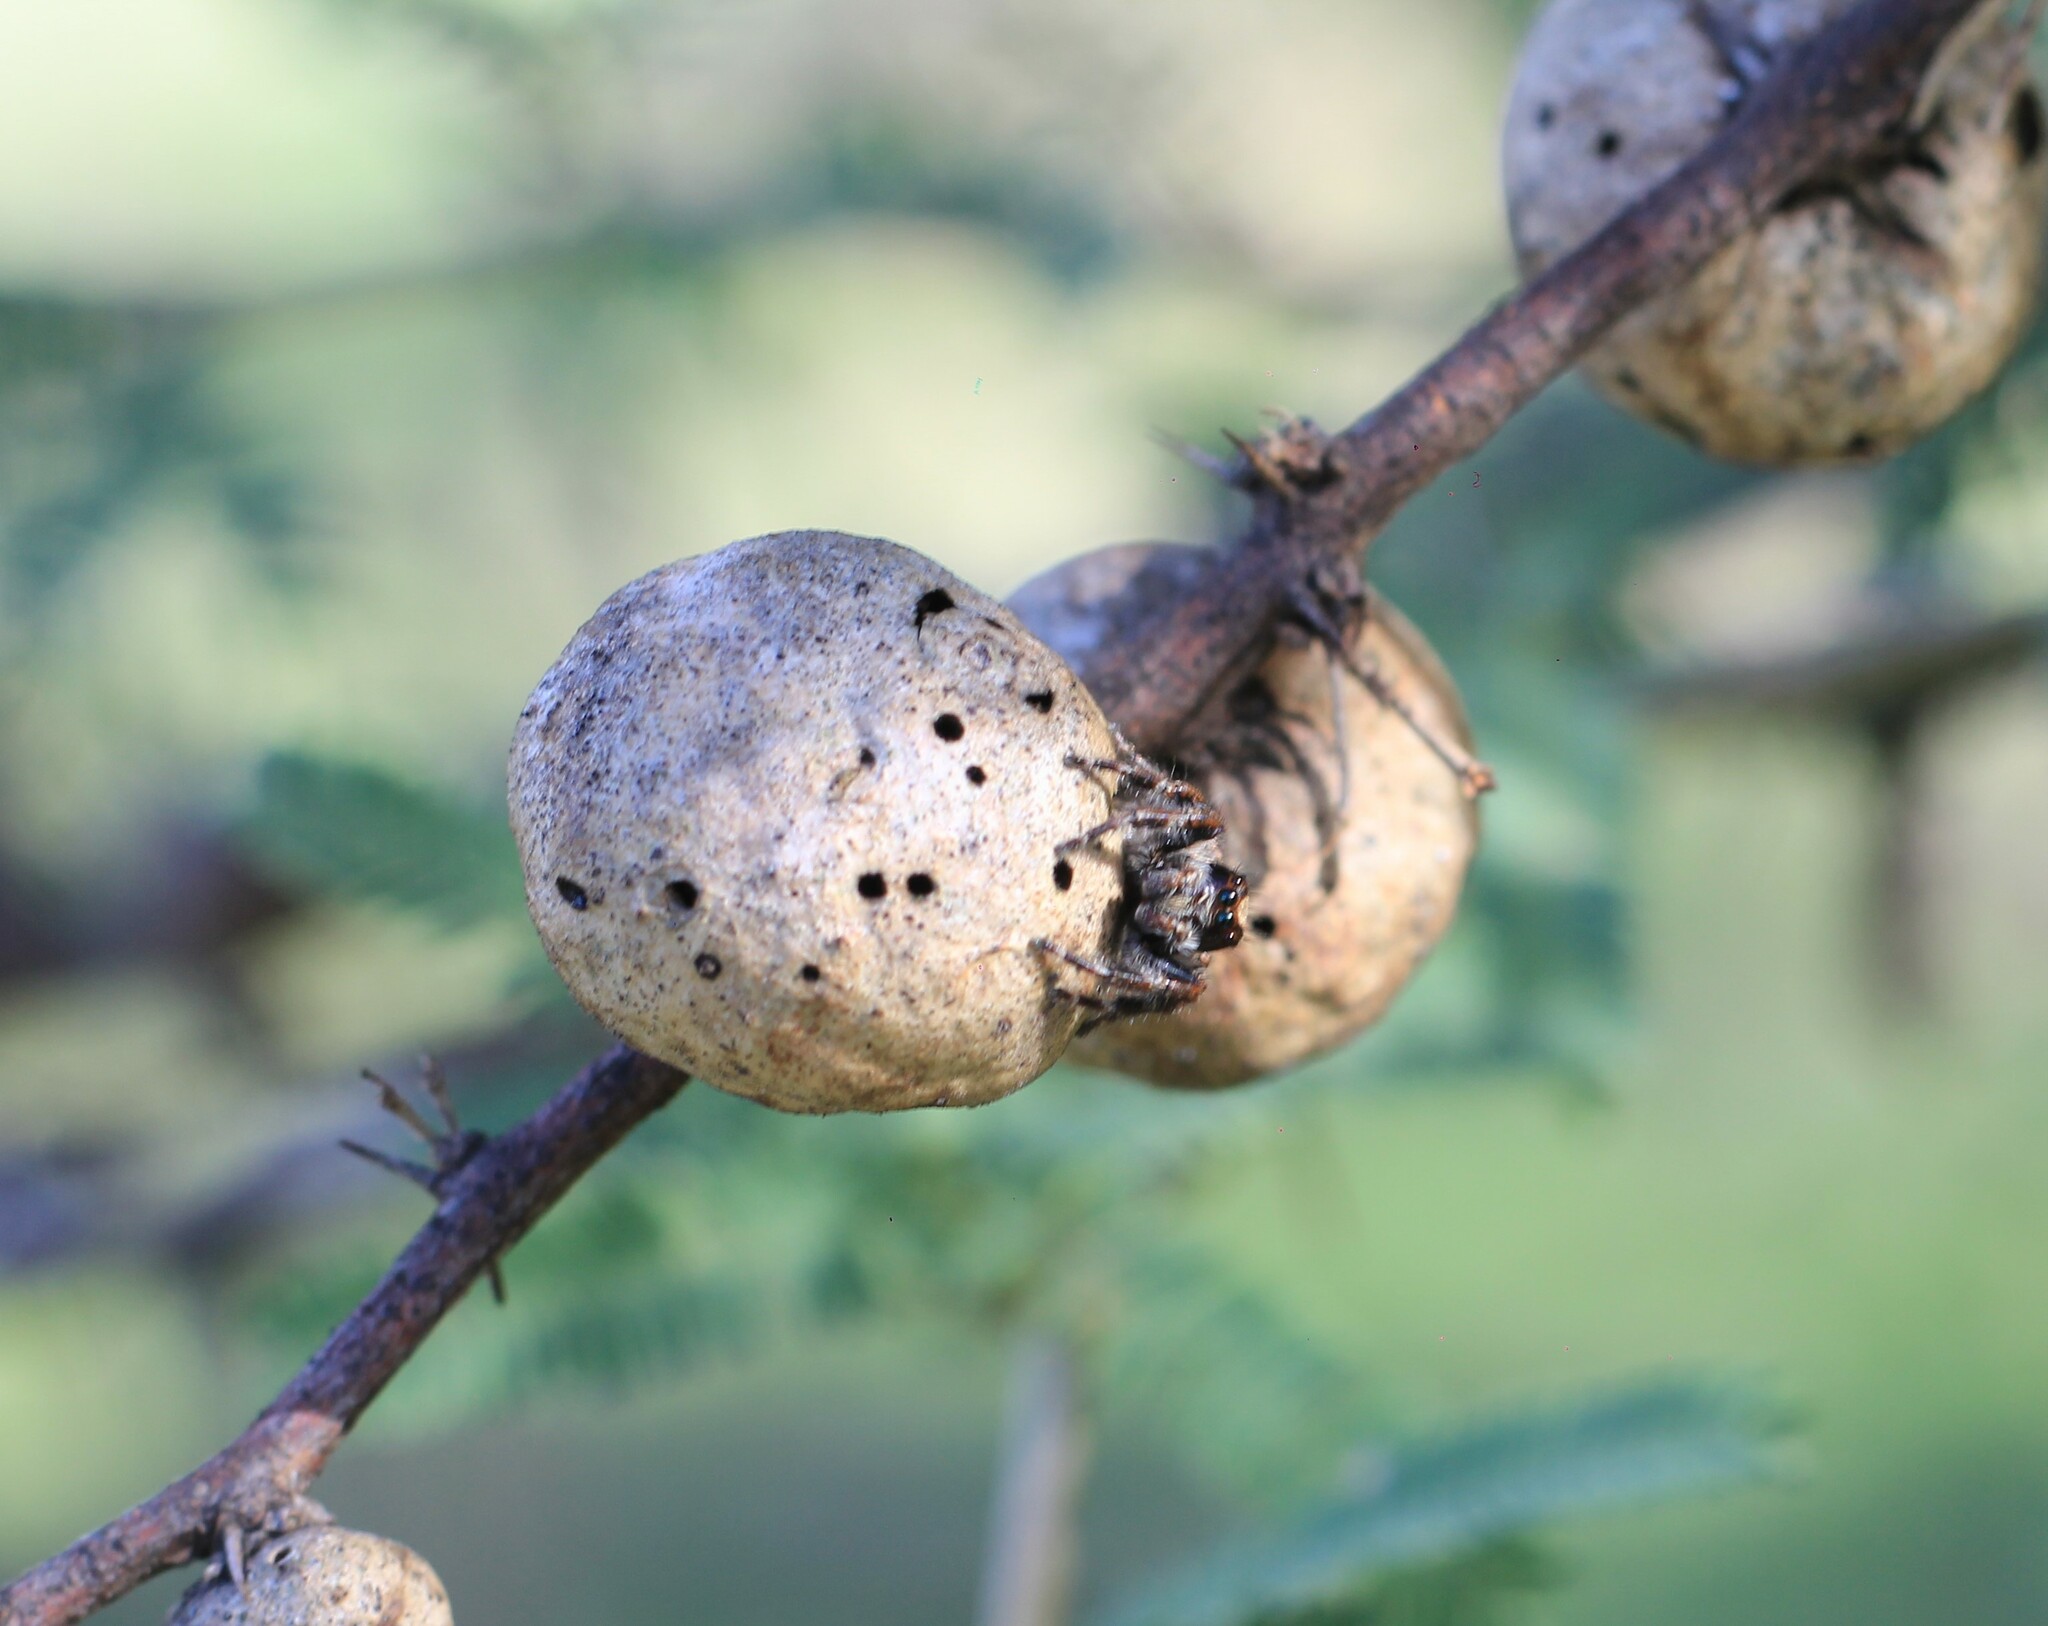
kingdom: Animalia
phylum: Arthropoda
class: Arachnida
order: Araneae
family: Salticidae
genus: Megafreya
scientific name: Megafreya sutrix
